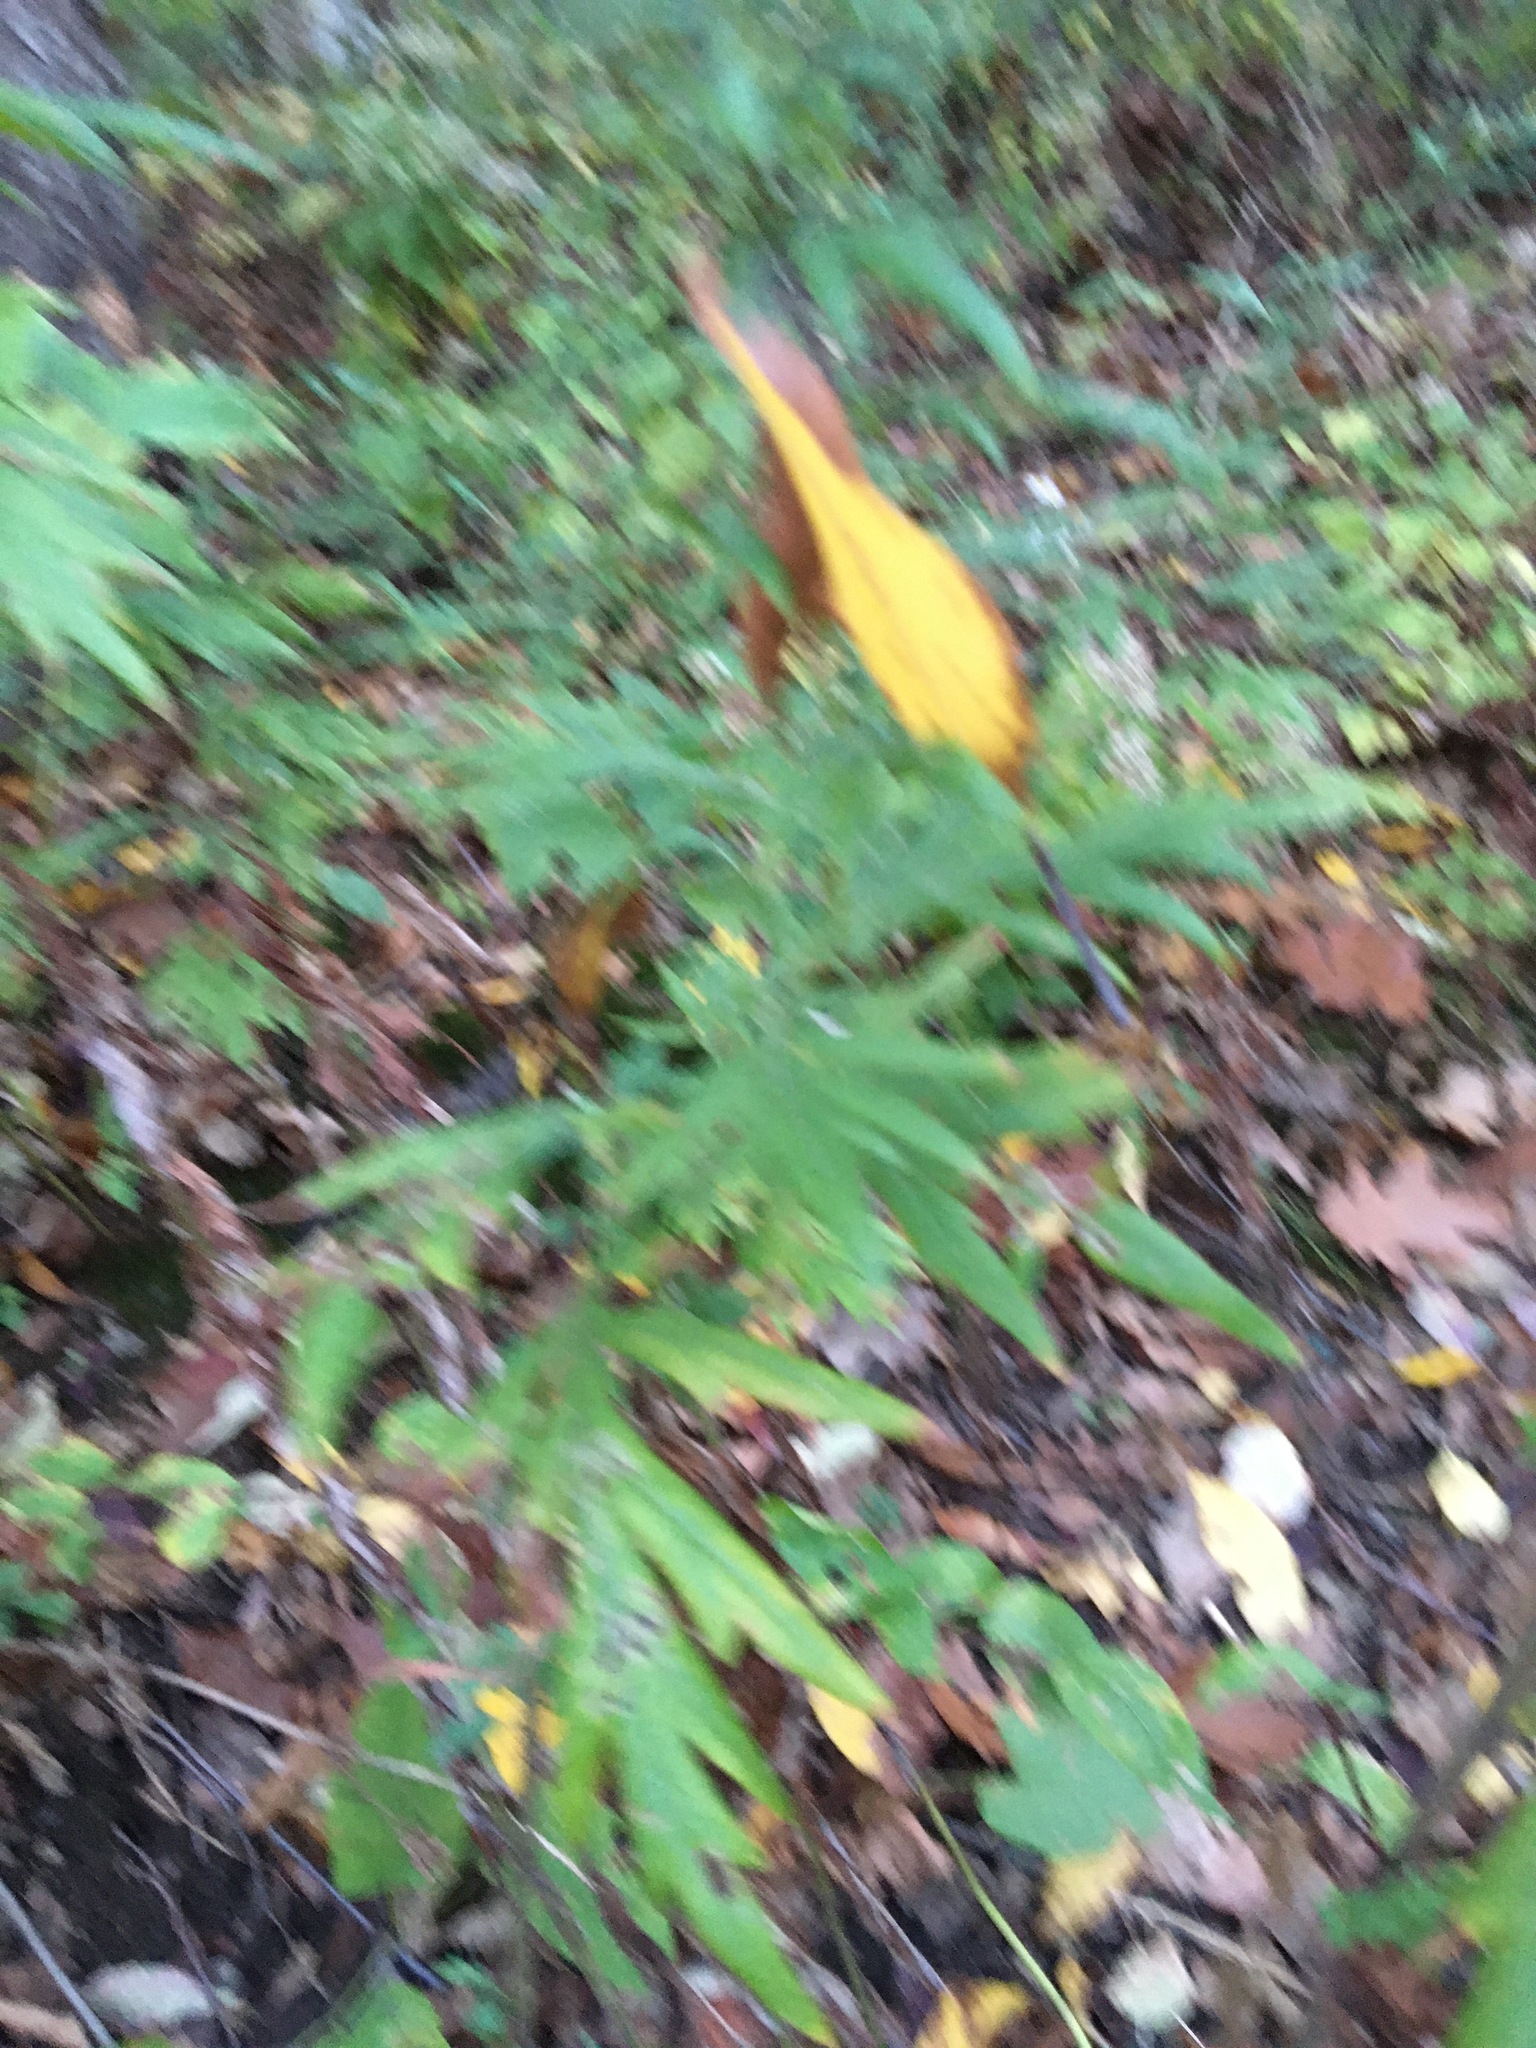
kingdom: Plantae
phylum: Tracheophyta
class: Magnoliopsida
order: Asterales
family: Asteraceae
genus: Artemisia
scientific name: Artemisia vulgaris
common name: Mugwort
